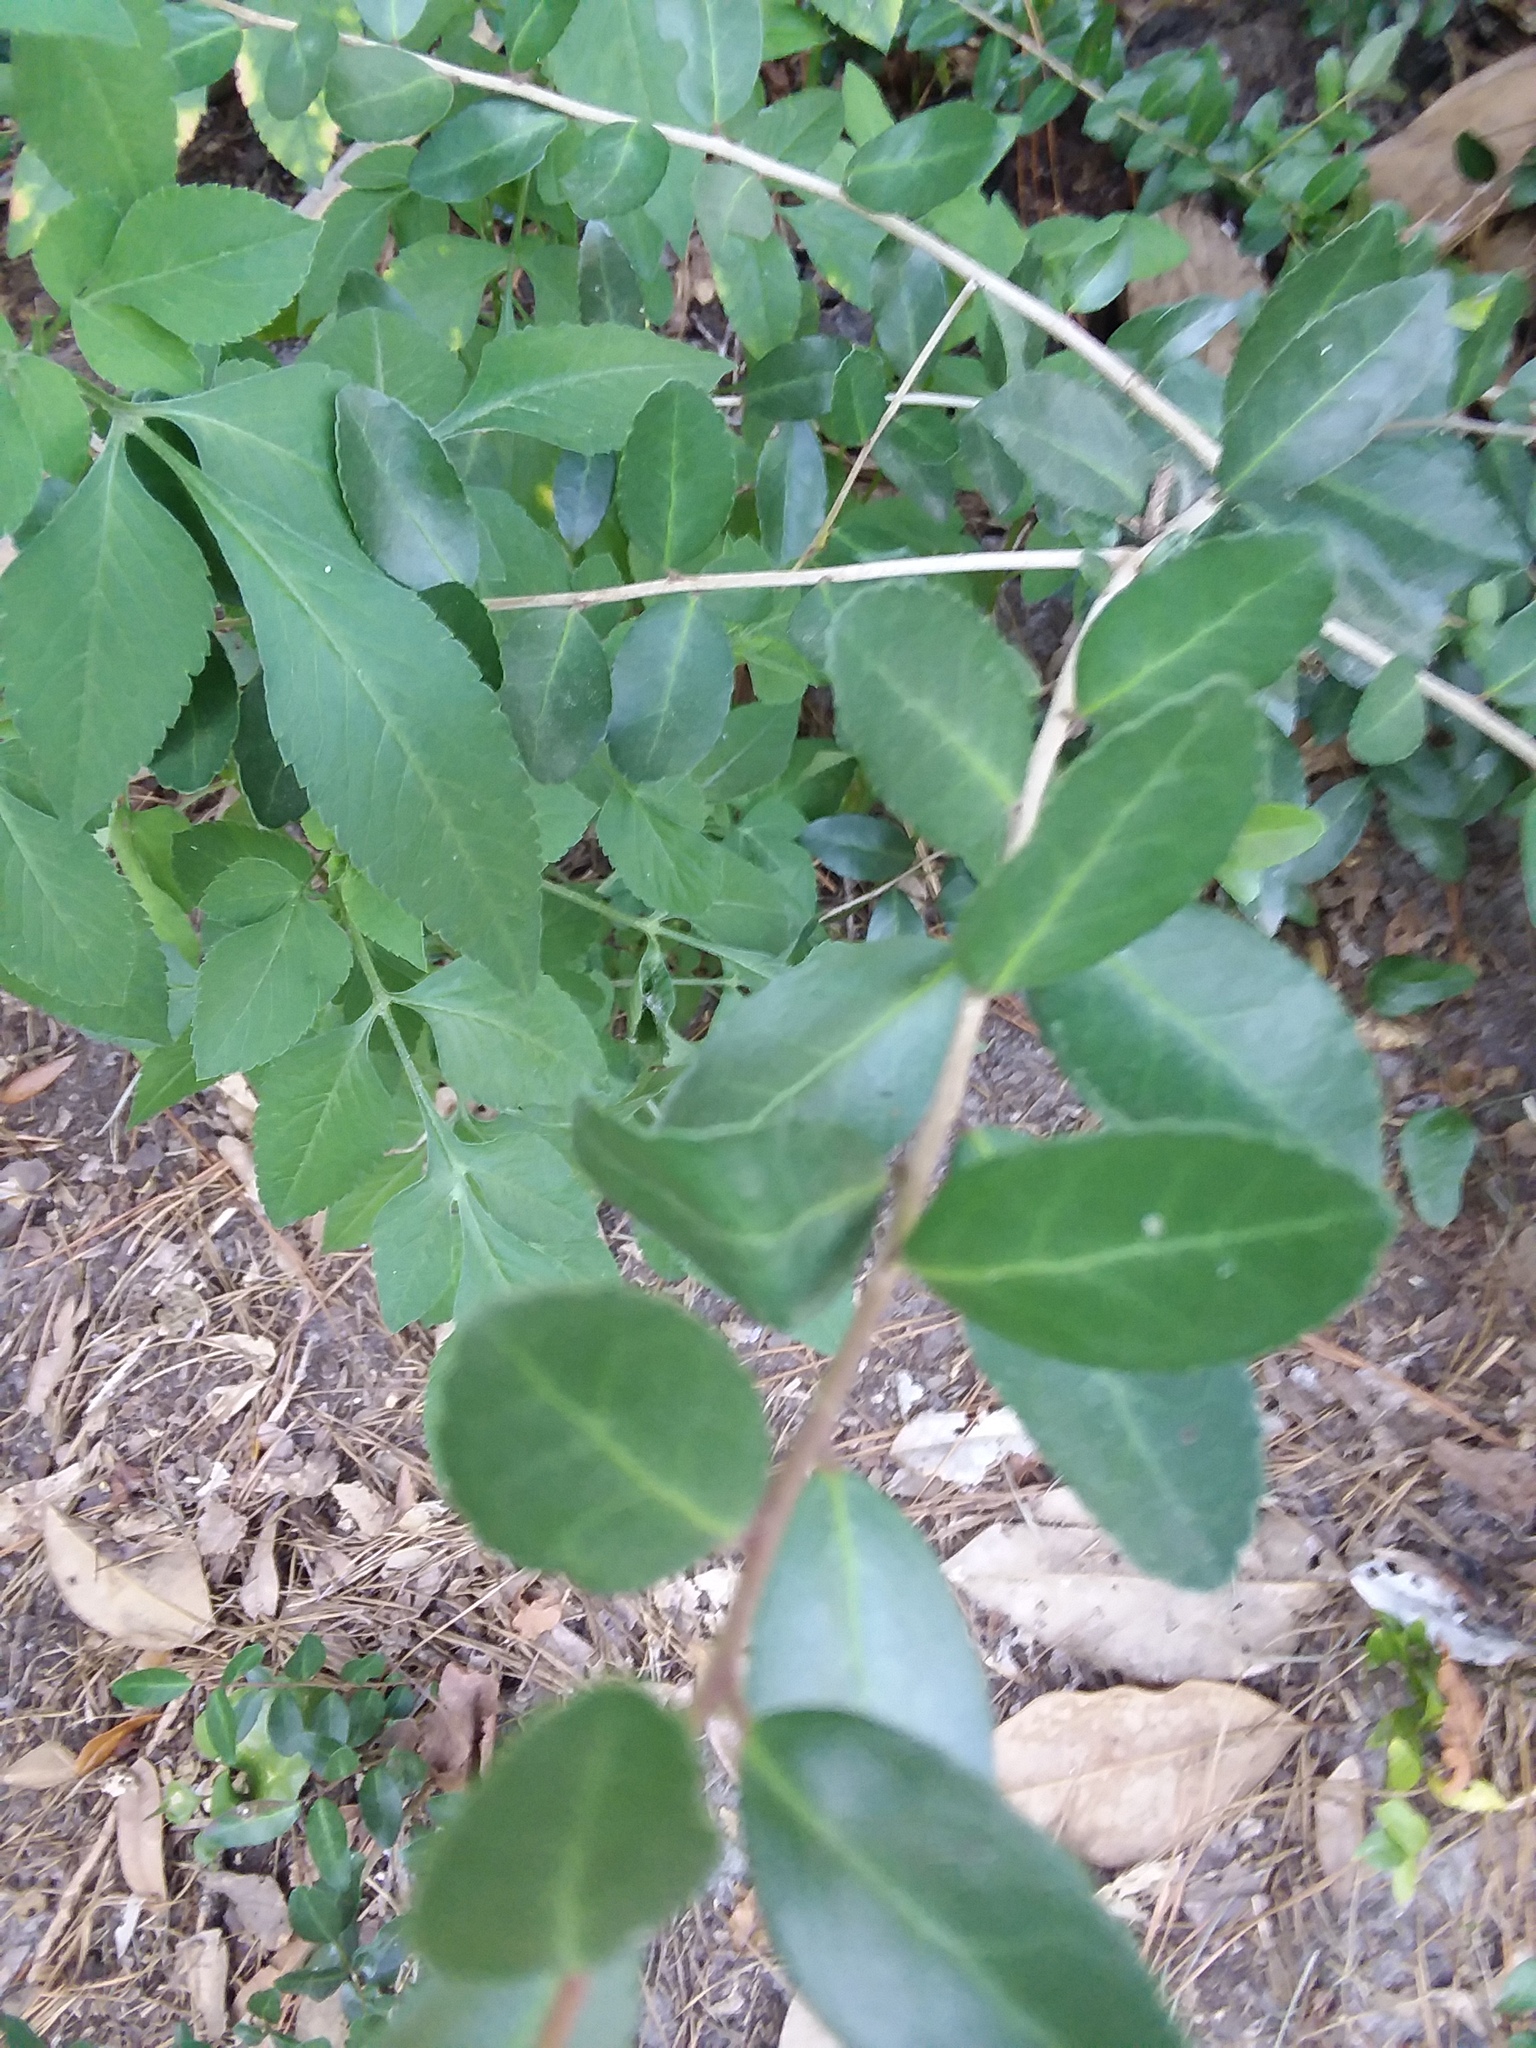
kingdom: Plantae
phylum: Tracheophyta
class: Magnoliopsida
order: Aquifoliales
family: Aquifoliaceae
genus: Ilex
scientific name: Ilex vomitoria
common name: Yaupon holly
